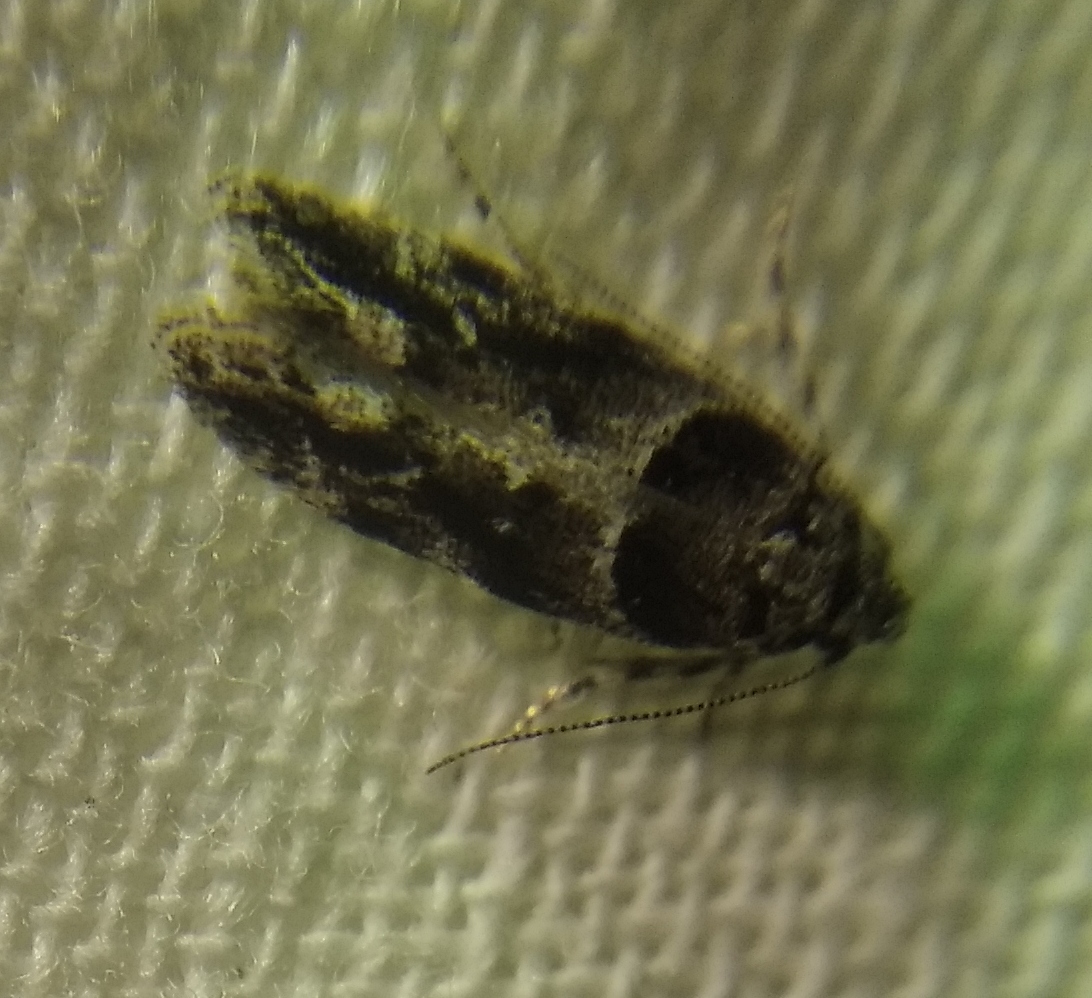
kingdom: Animalia
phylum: Arthropoda
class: Insecta
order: Lepidoptera
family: Gelechiidae
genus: Recurvaria
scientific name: Recurvaria nanella
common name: Gelechiid moth
